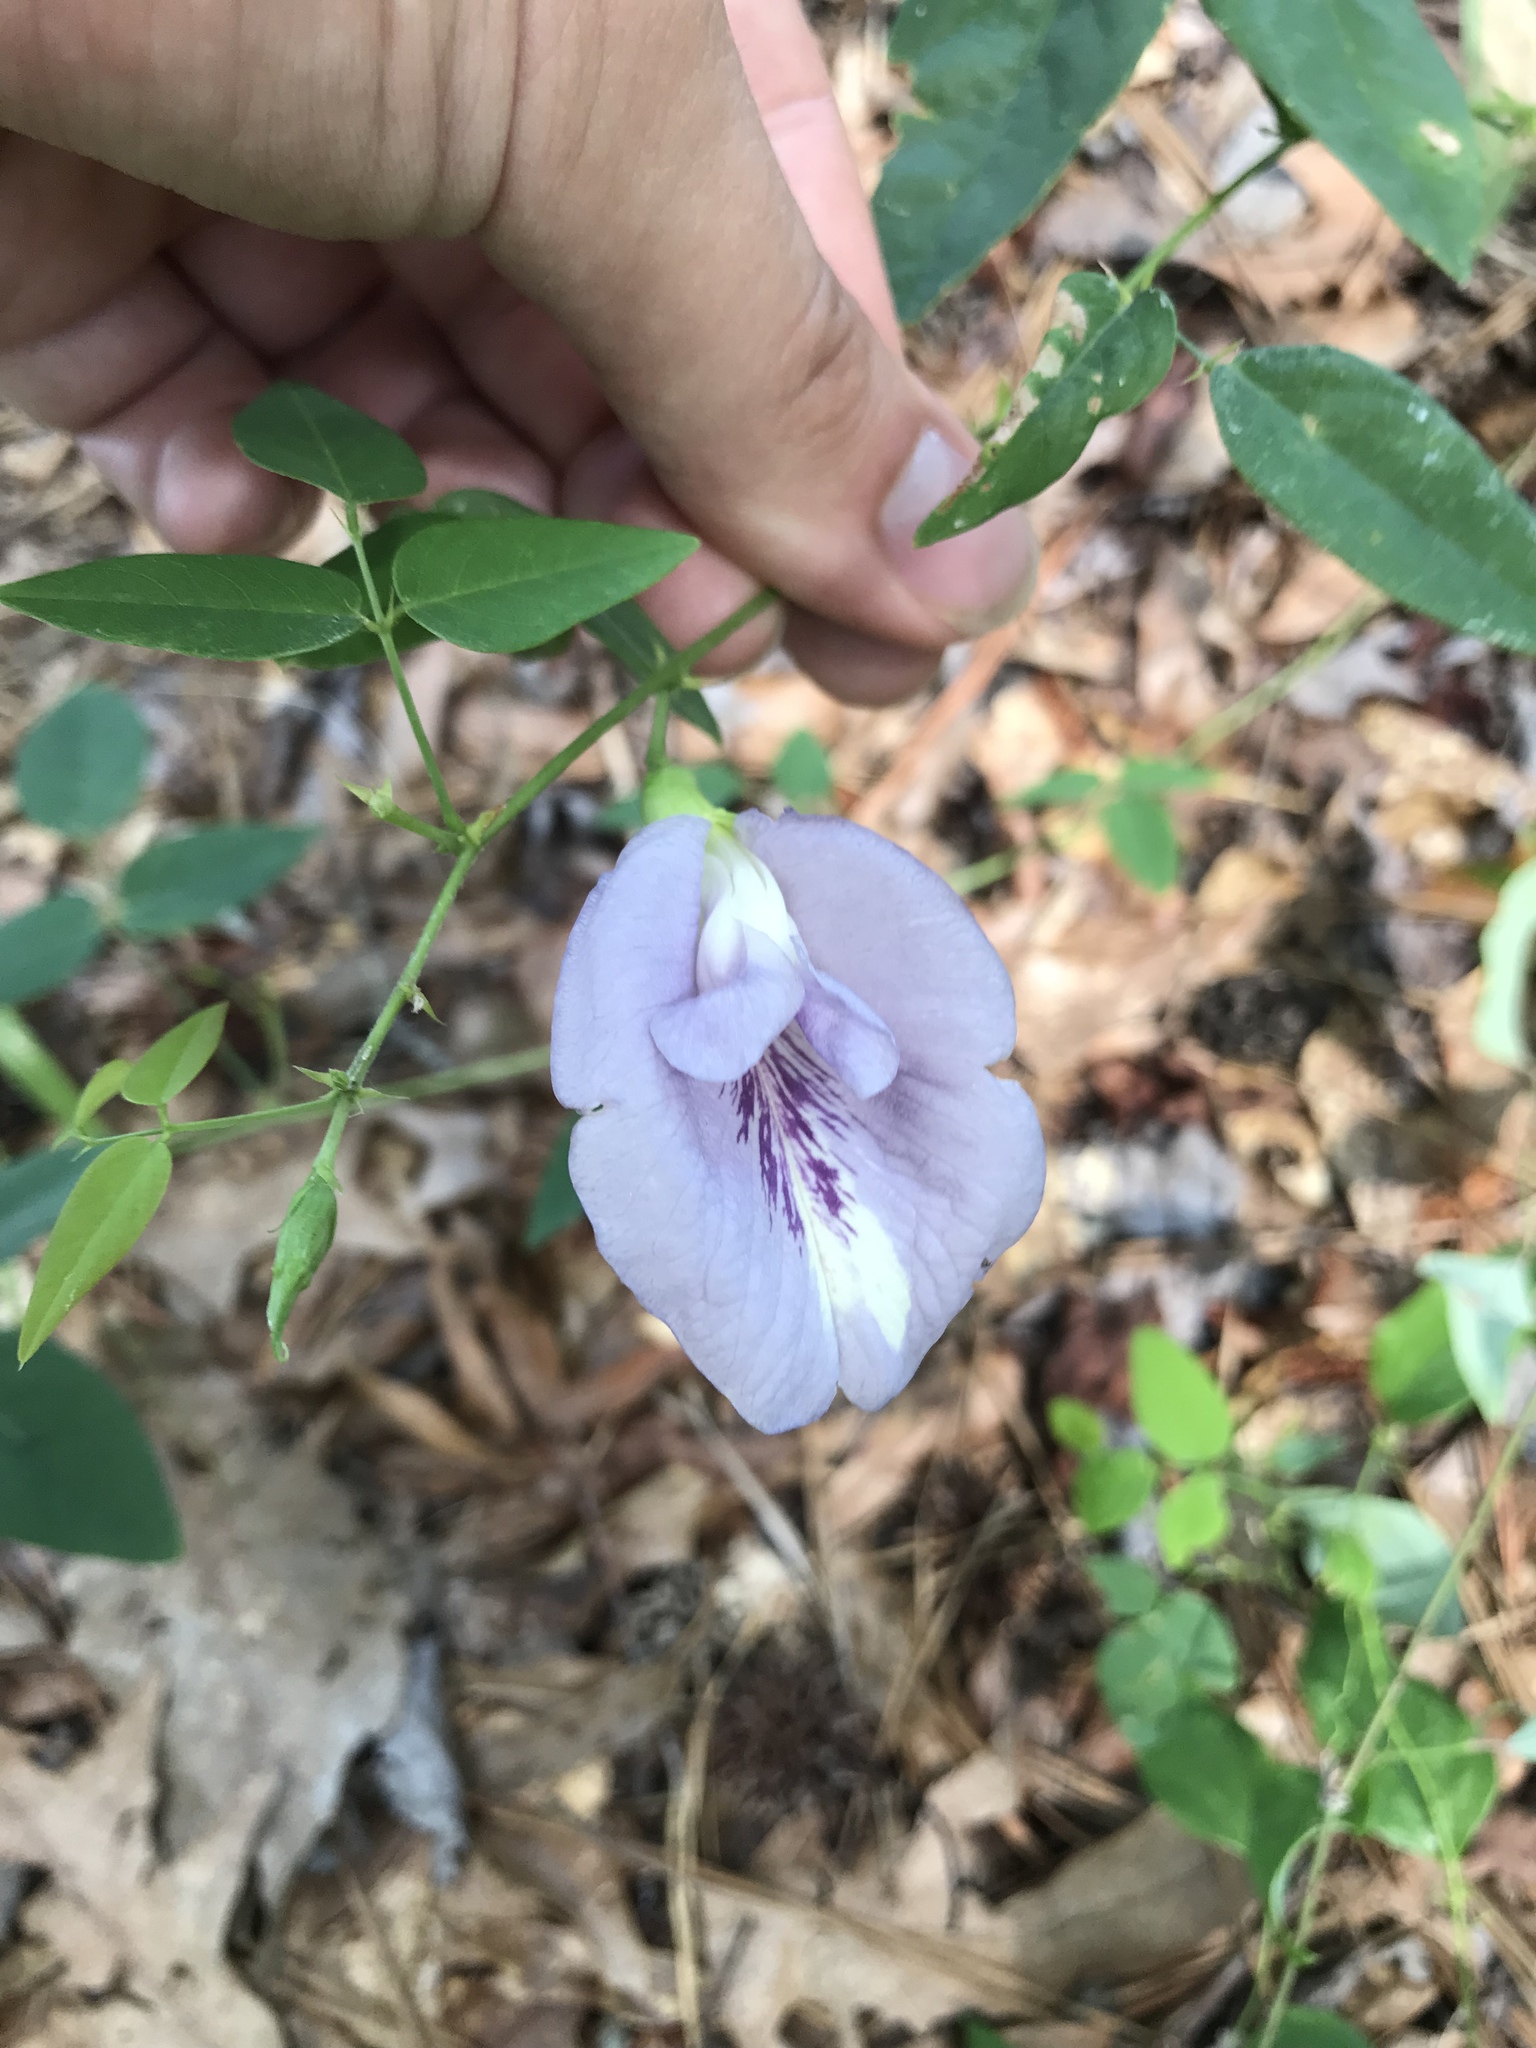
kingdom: Plantae
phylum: Tracheophyta
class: Magnoliopsida
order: Fabales
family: Fabaceae
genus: Clitoria
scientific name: Clitoria mariana
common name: Butterfly-pea
